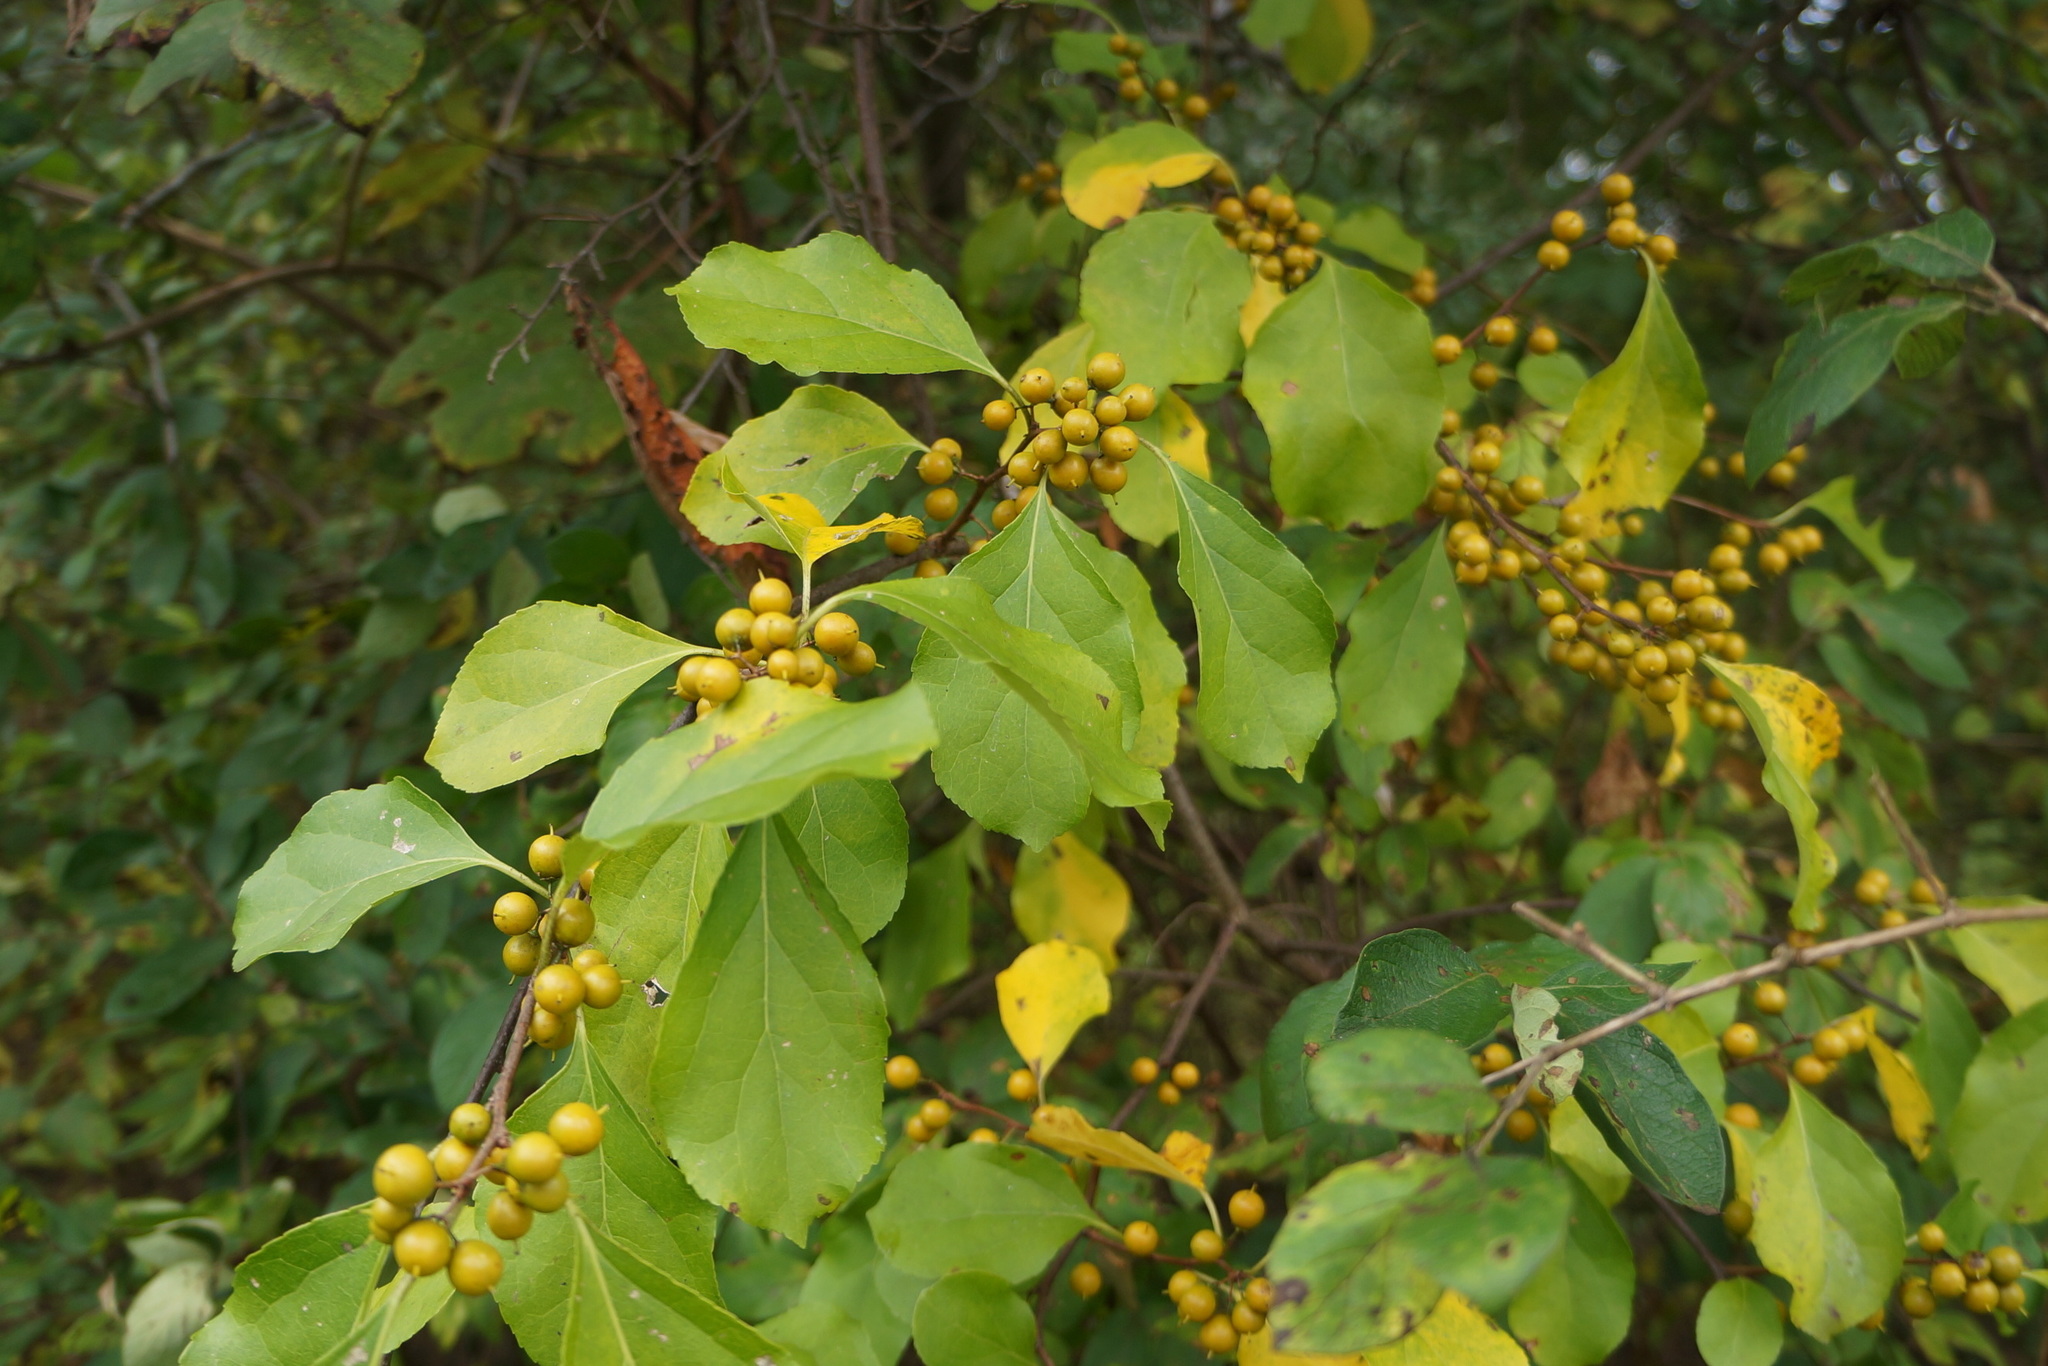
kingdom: Plantae
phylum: Tracheophyta
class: Magnoliopsida
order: Celastrales
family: Celastraceae
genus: Celastrus
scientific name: Celastrus orbiculatus
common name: Oriental bittersweet
